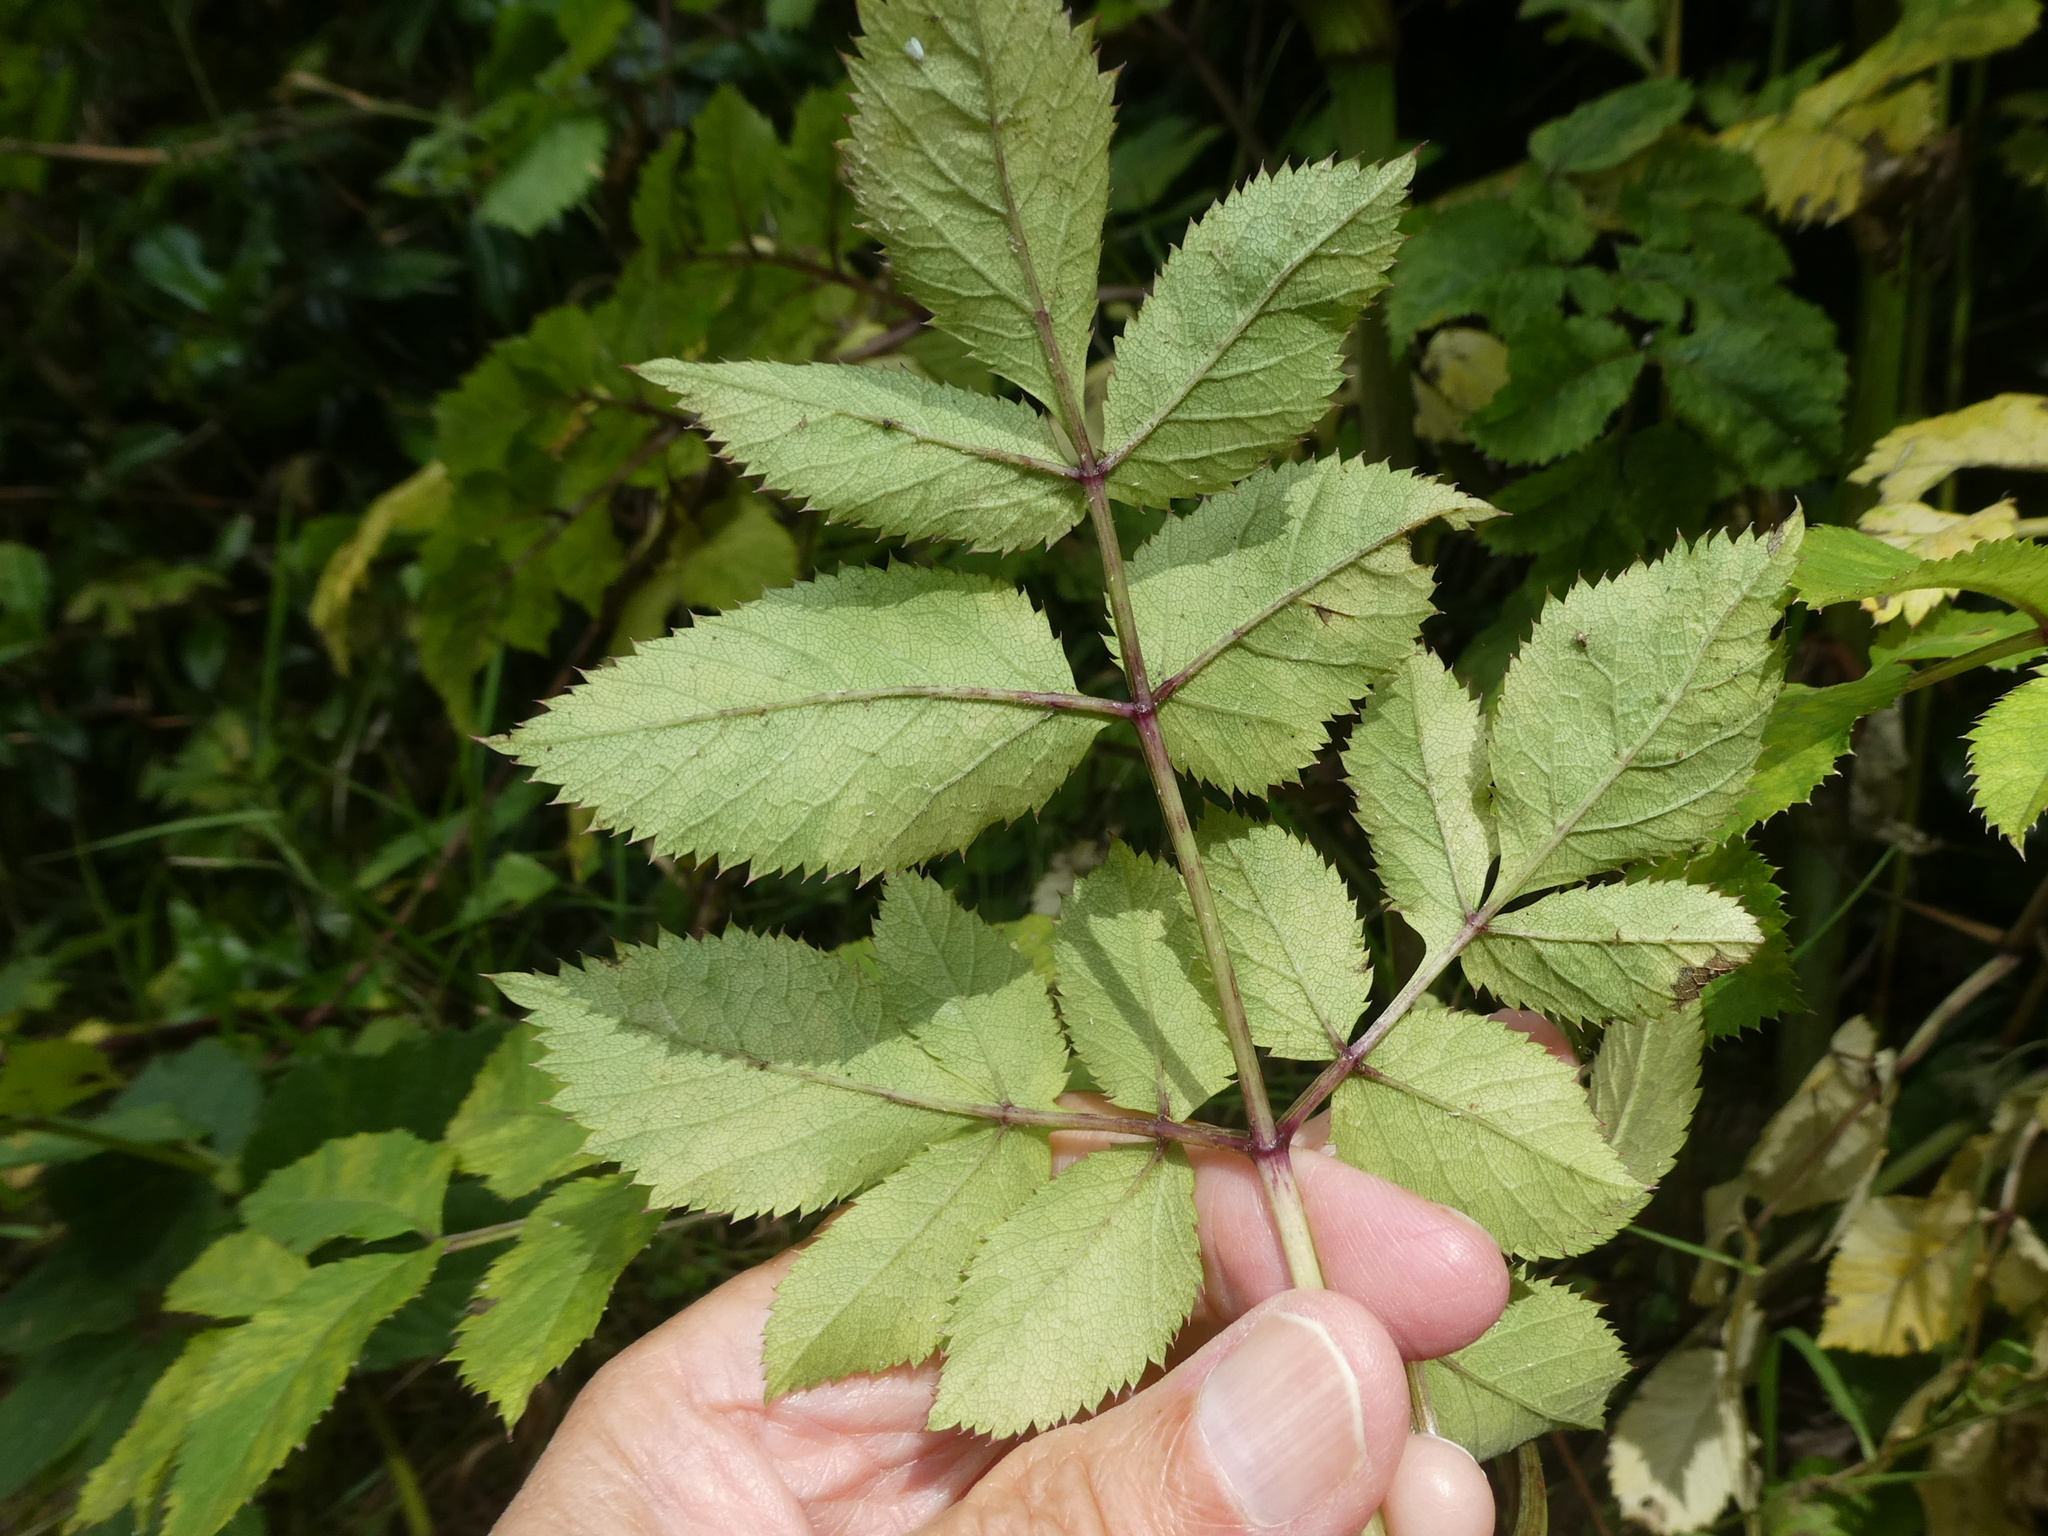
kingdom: Plantae
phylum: Tracheophyta
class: Magnoliopsida
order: Apiales
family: Apiaceae
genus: Angelica
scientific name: Angelica sylvestris
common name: Wild angelica
